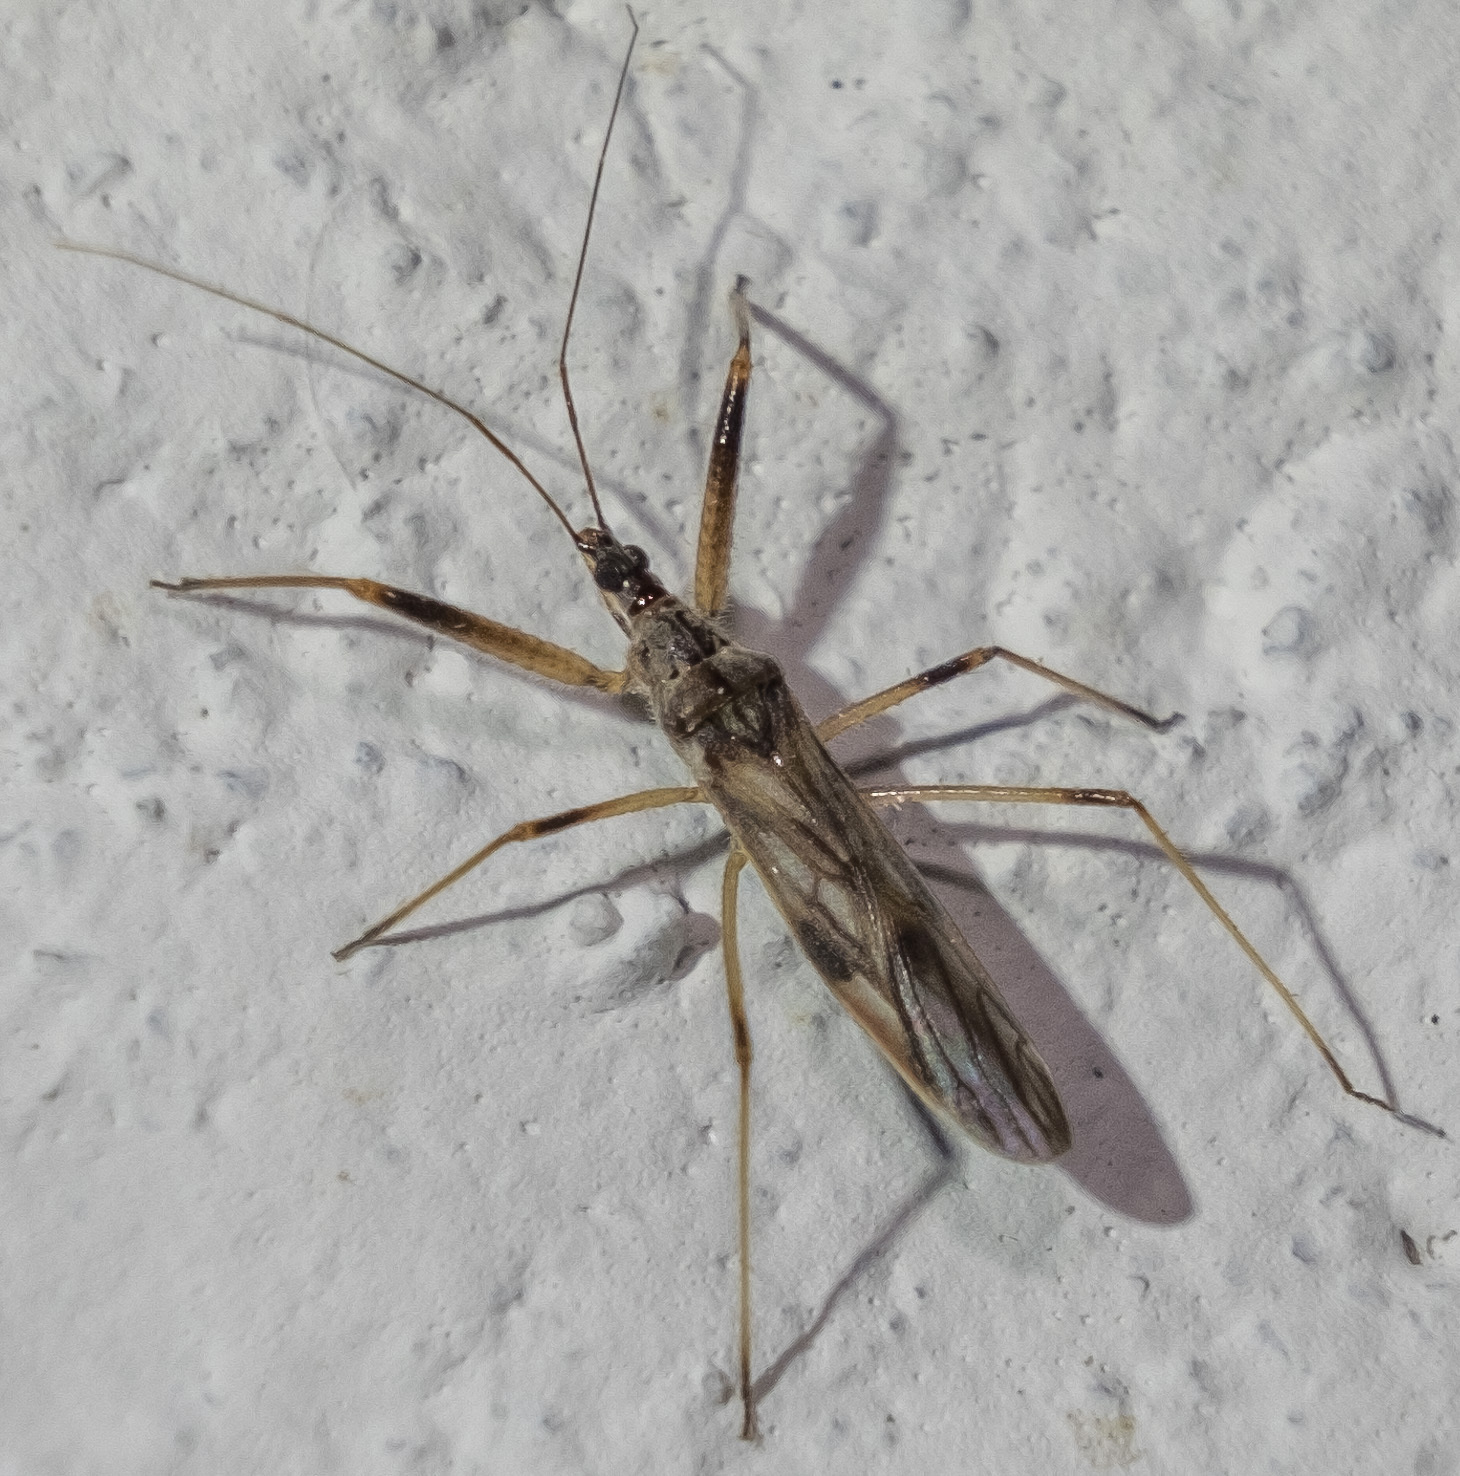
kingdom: Animalia
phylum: Arthropoda
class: Insecta
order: Hemiptera
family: Nabidae
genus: Metatropiphorus
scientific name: Metatropiphorus belfragii
